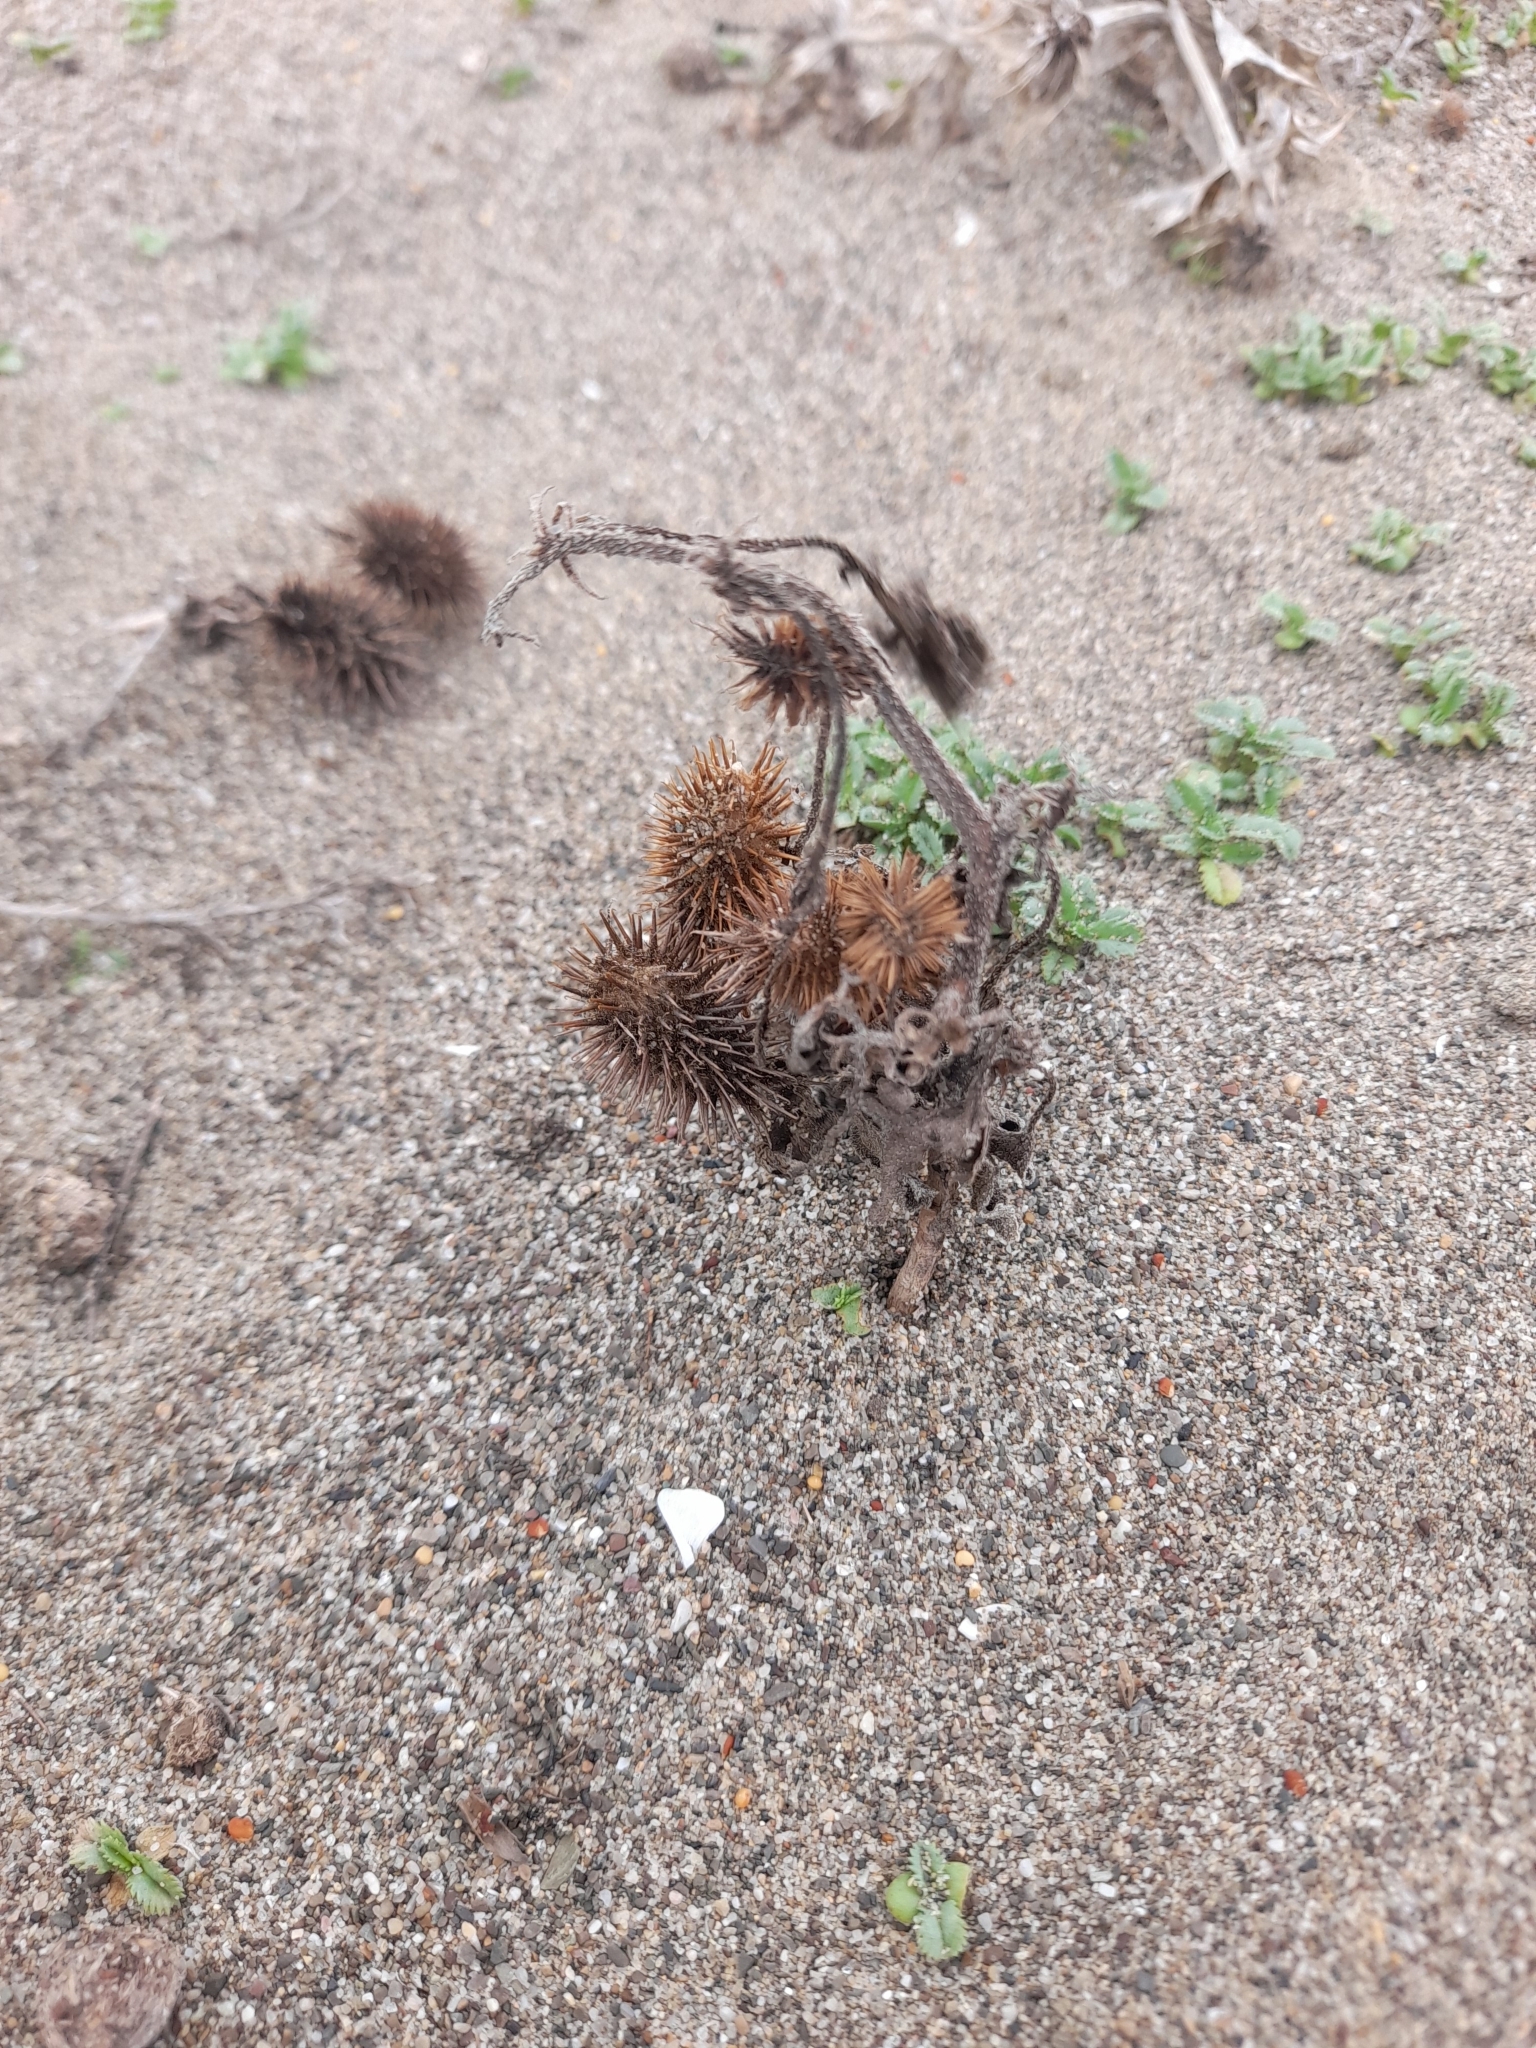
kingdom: Plantae
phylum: Tracheophyta
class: Magnoliopsida
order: Asterales
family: Asteraceae
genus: Xanthium
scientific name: Xanthium orientale
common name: Californian burr
